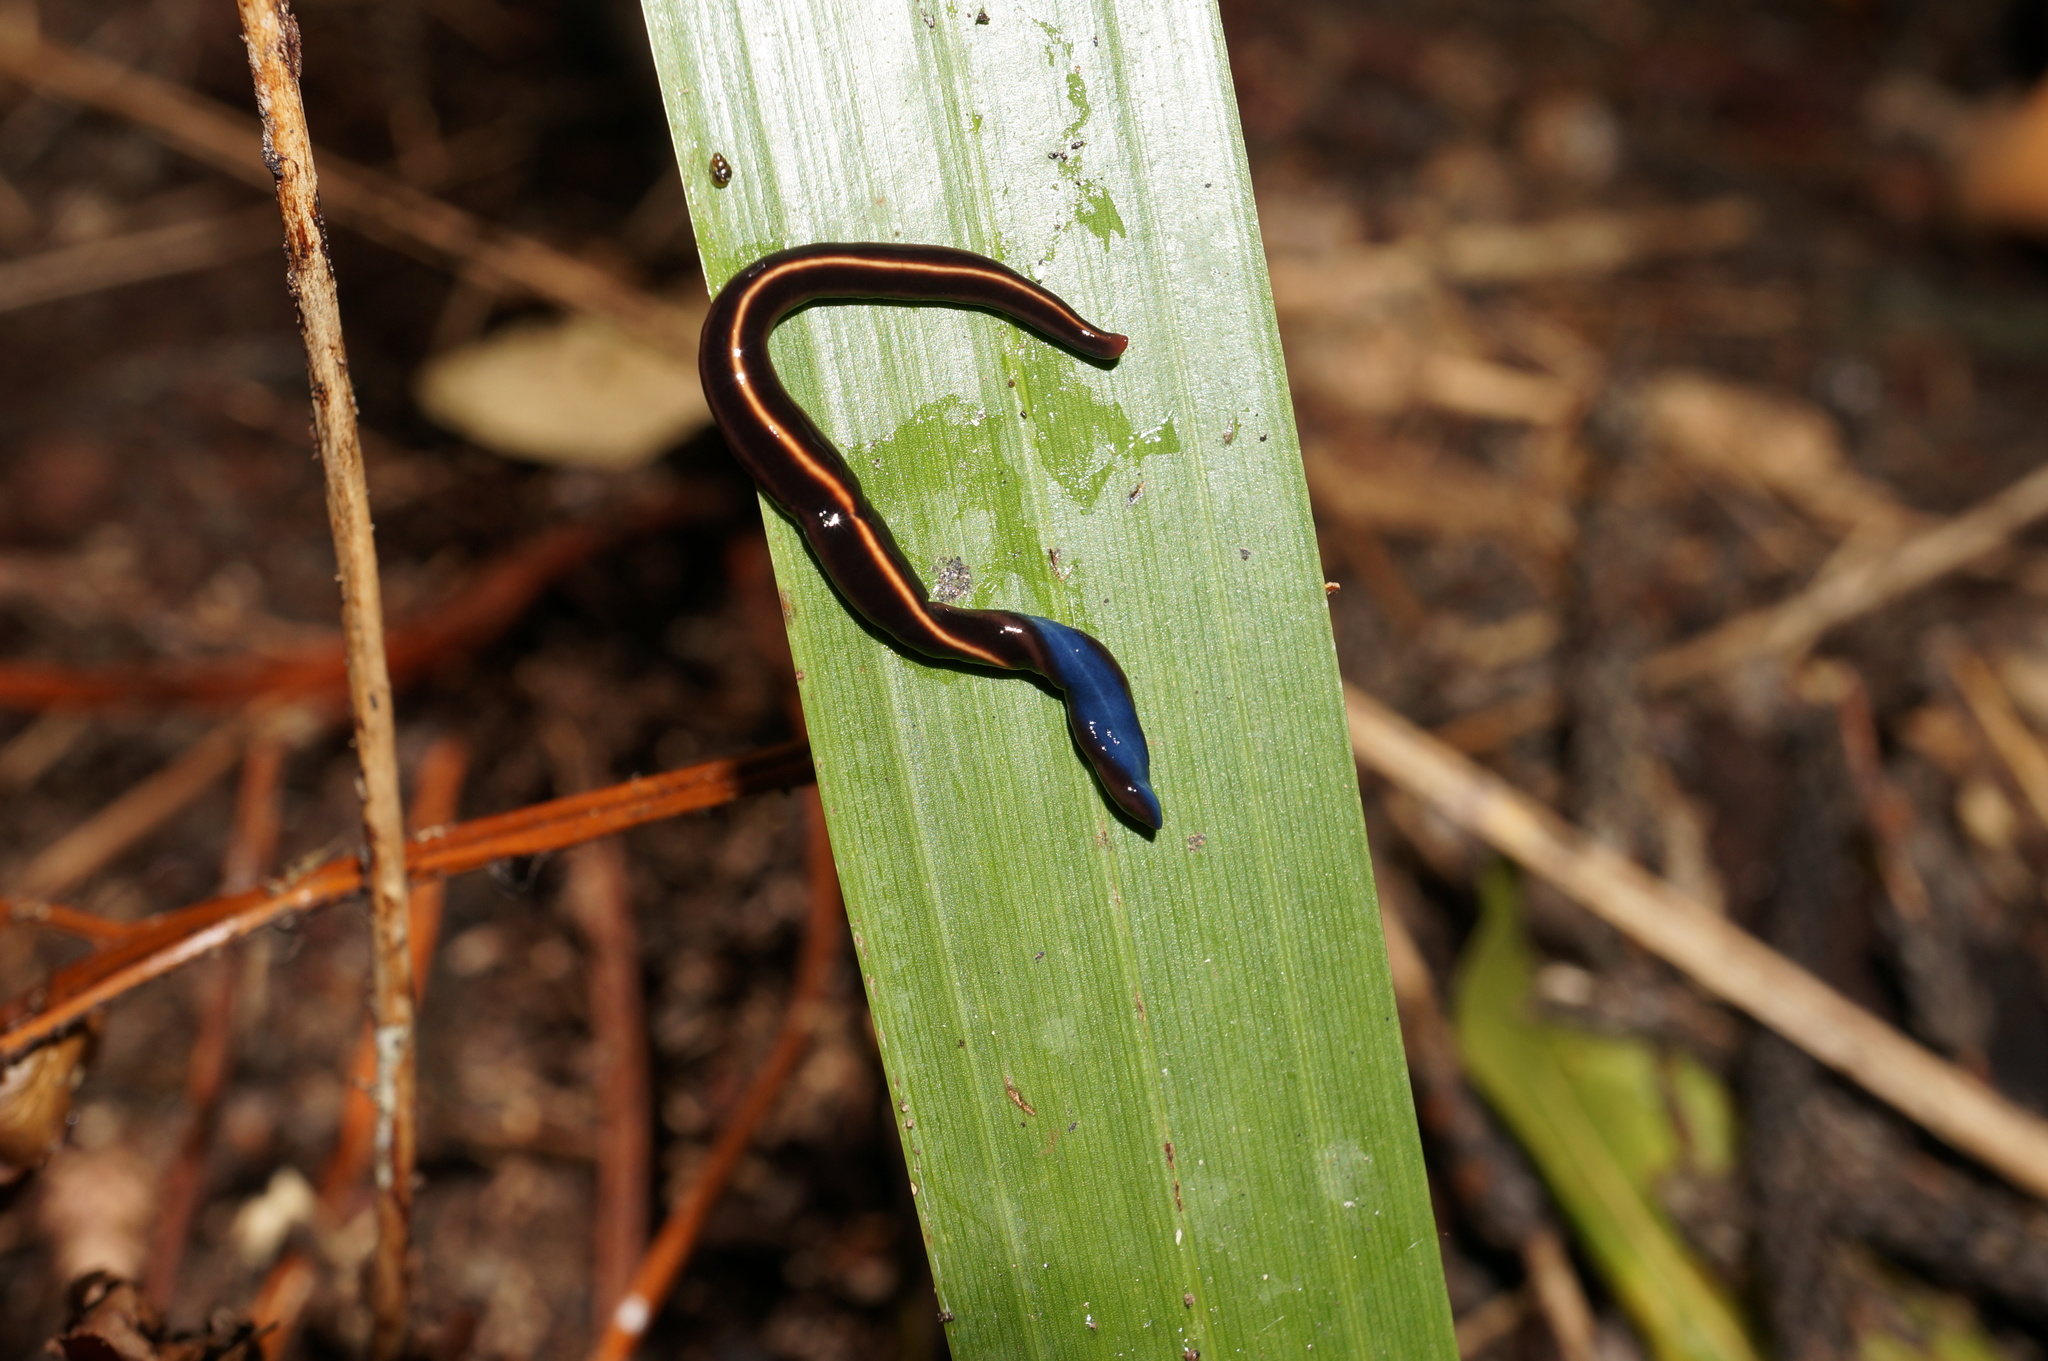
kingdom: Animalia
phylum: Platyhelminthes
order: Tricladida
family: Geoplanidae
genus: Caenoplana
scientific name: Caenoplana coerulea
